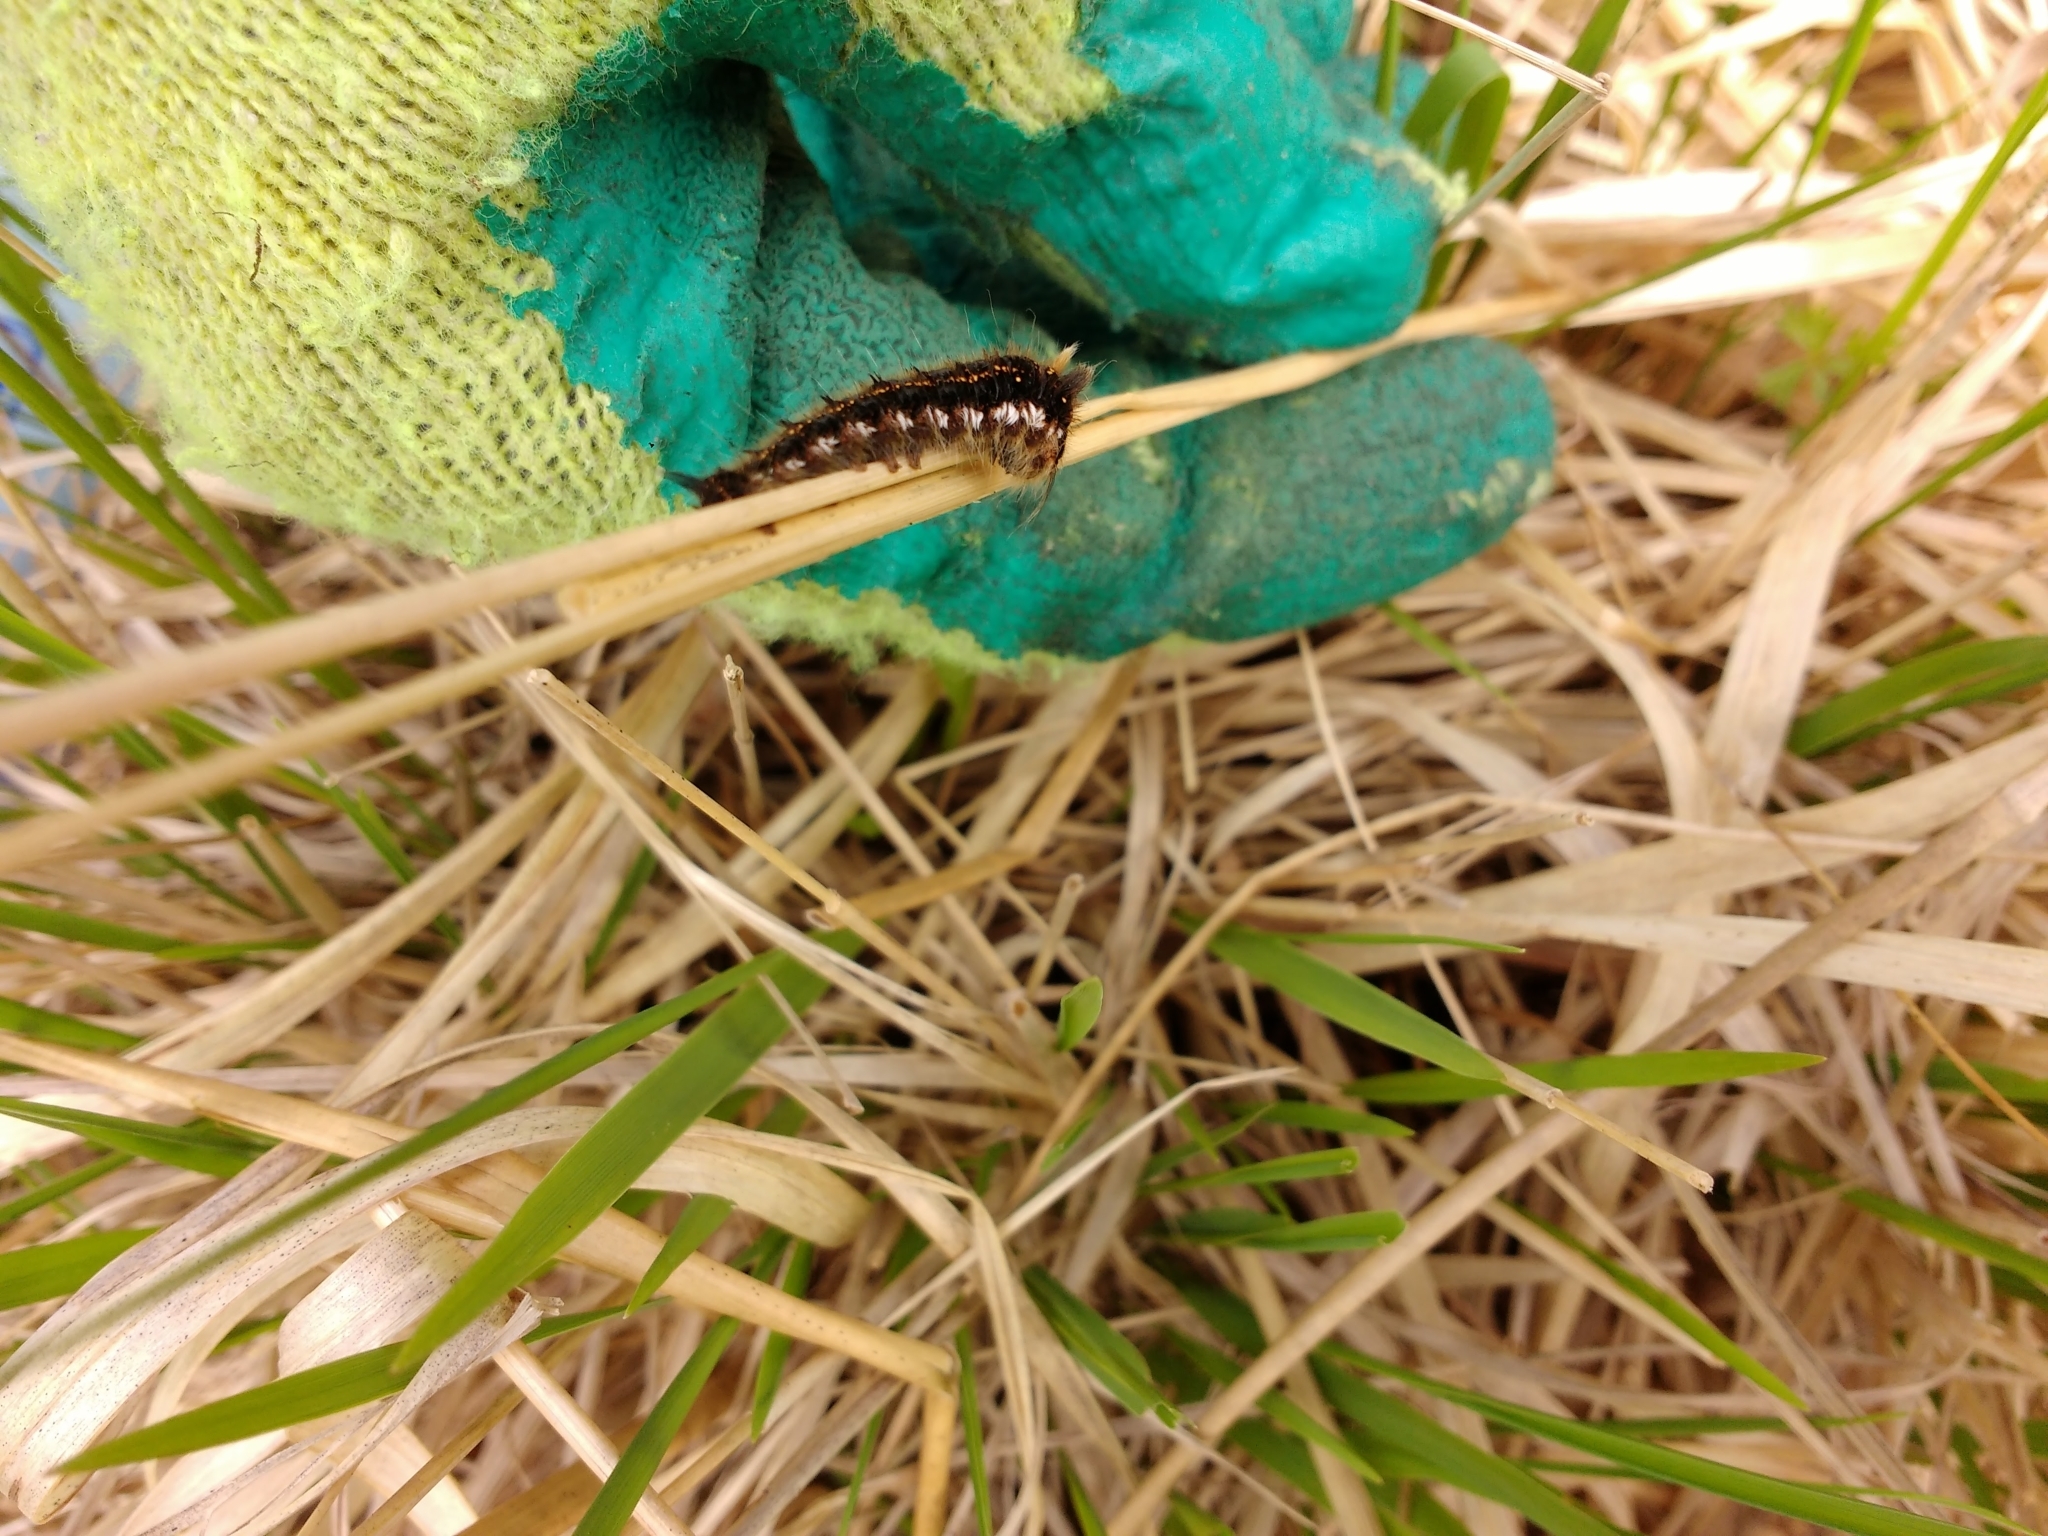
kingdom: Animalia
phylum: Arthropoda
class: Insecta
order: Lepidoptera
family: Lasiocampidae
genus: Euthrix
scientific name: Euthrix potatoria
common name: Drinker
